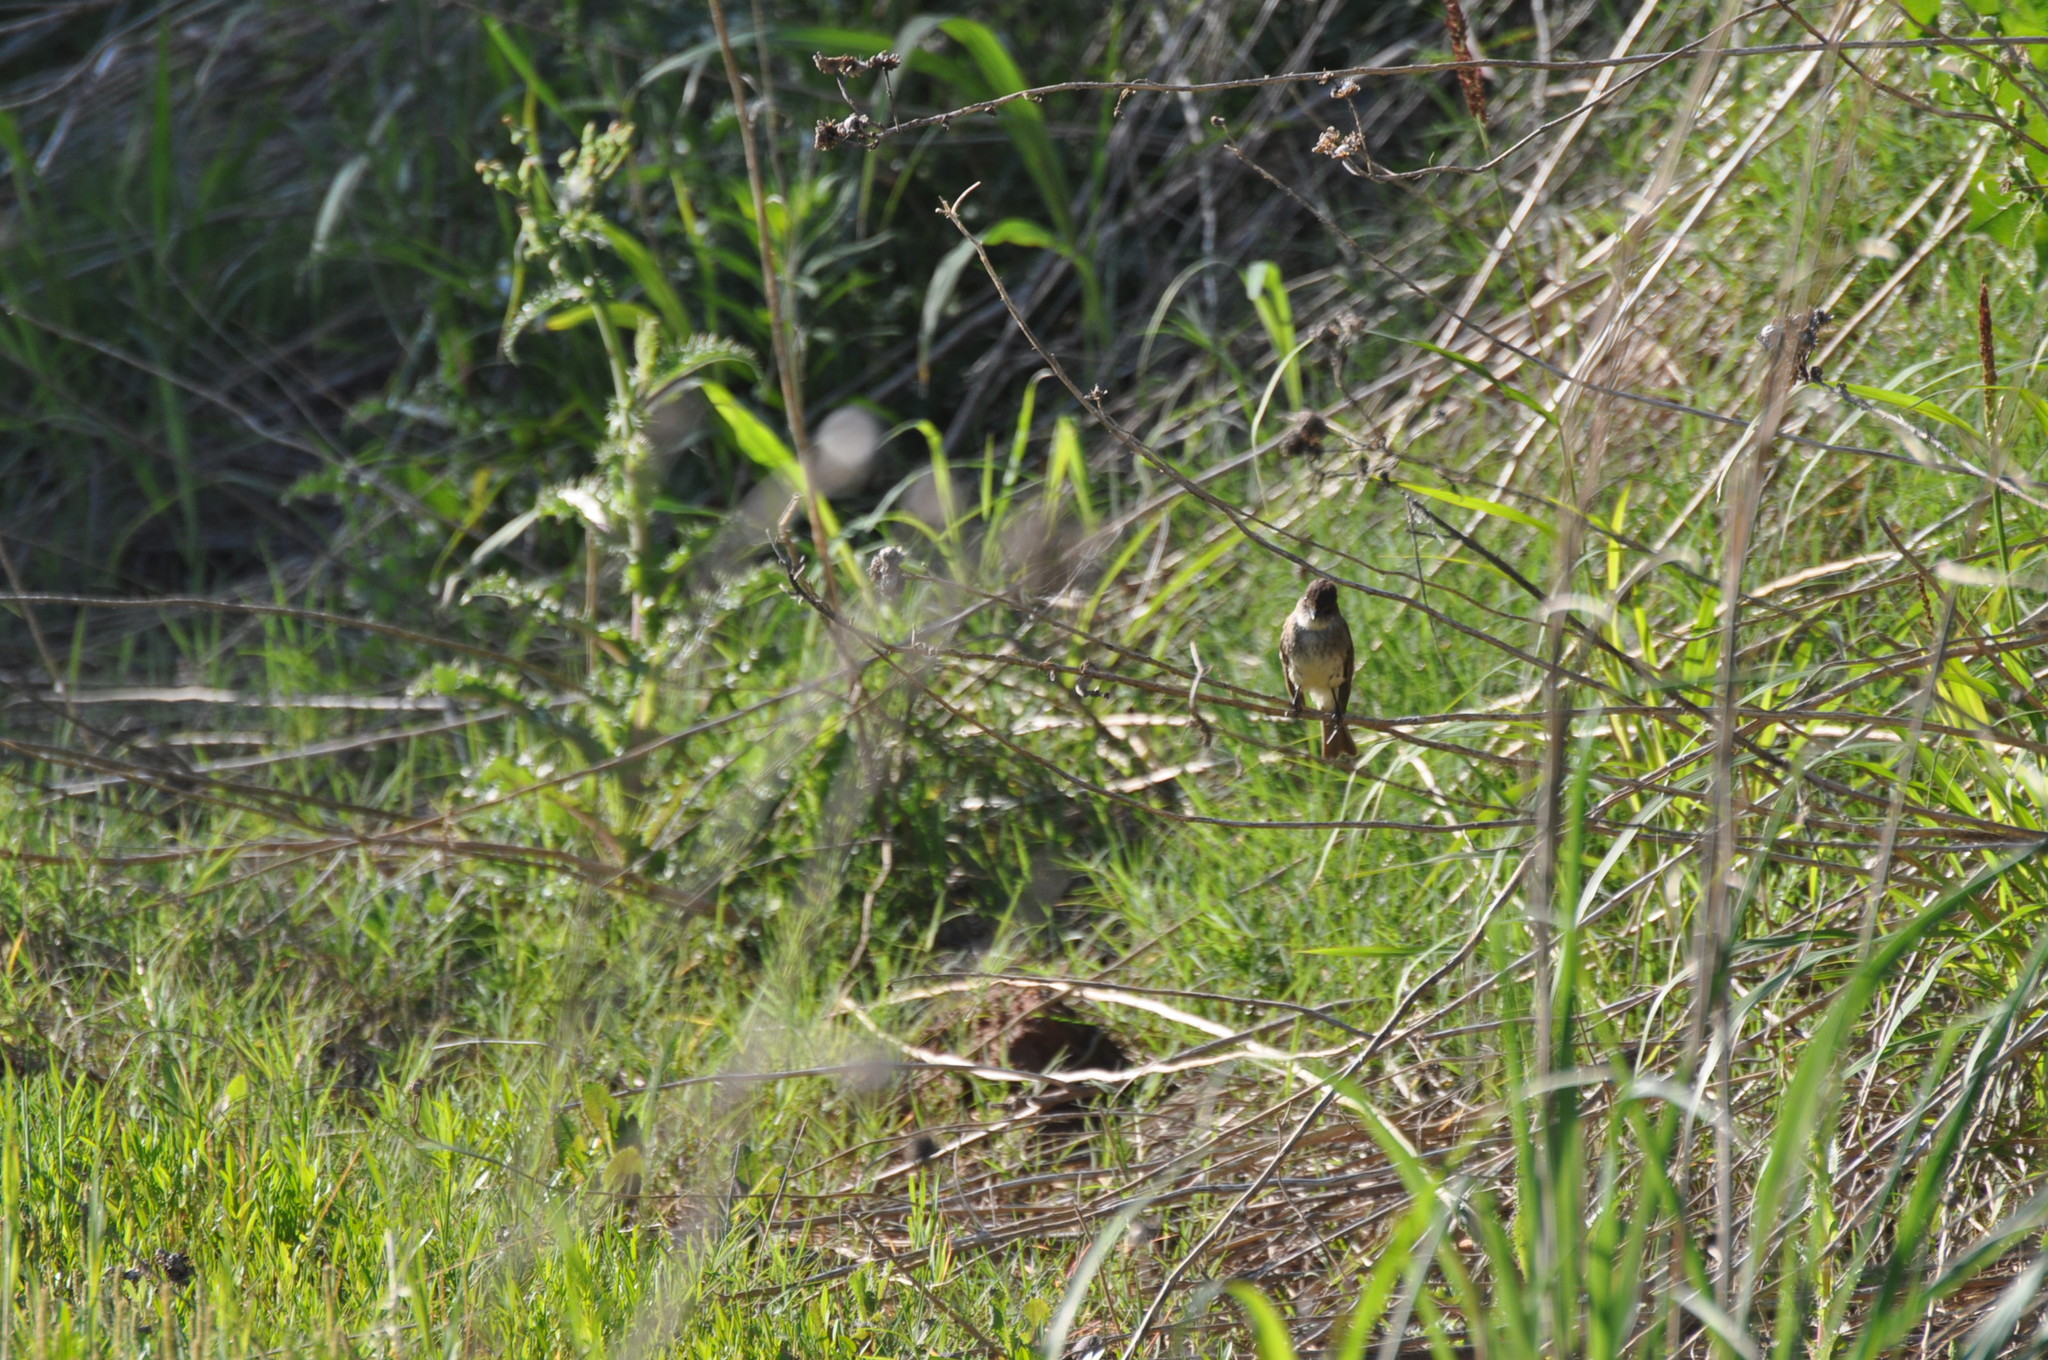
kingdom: Animalia
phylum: Chordata
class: Aves
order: Passeriformes
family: Tyrannidae
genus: Sayornis
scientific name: Sayornis phoebe
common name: Eastern phoebe
